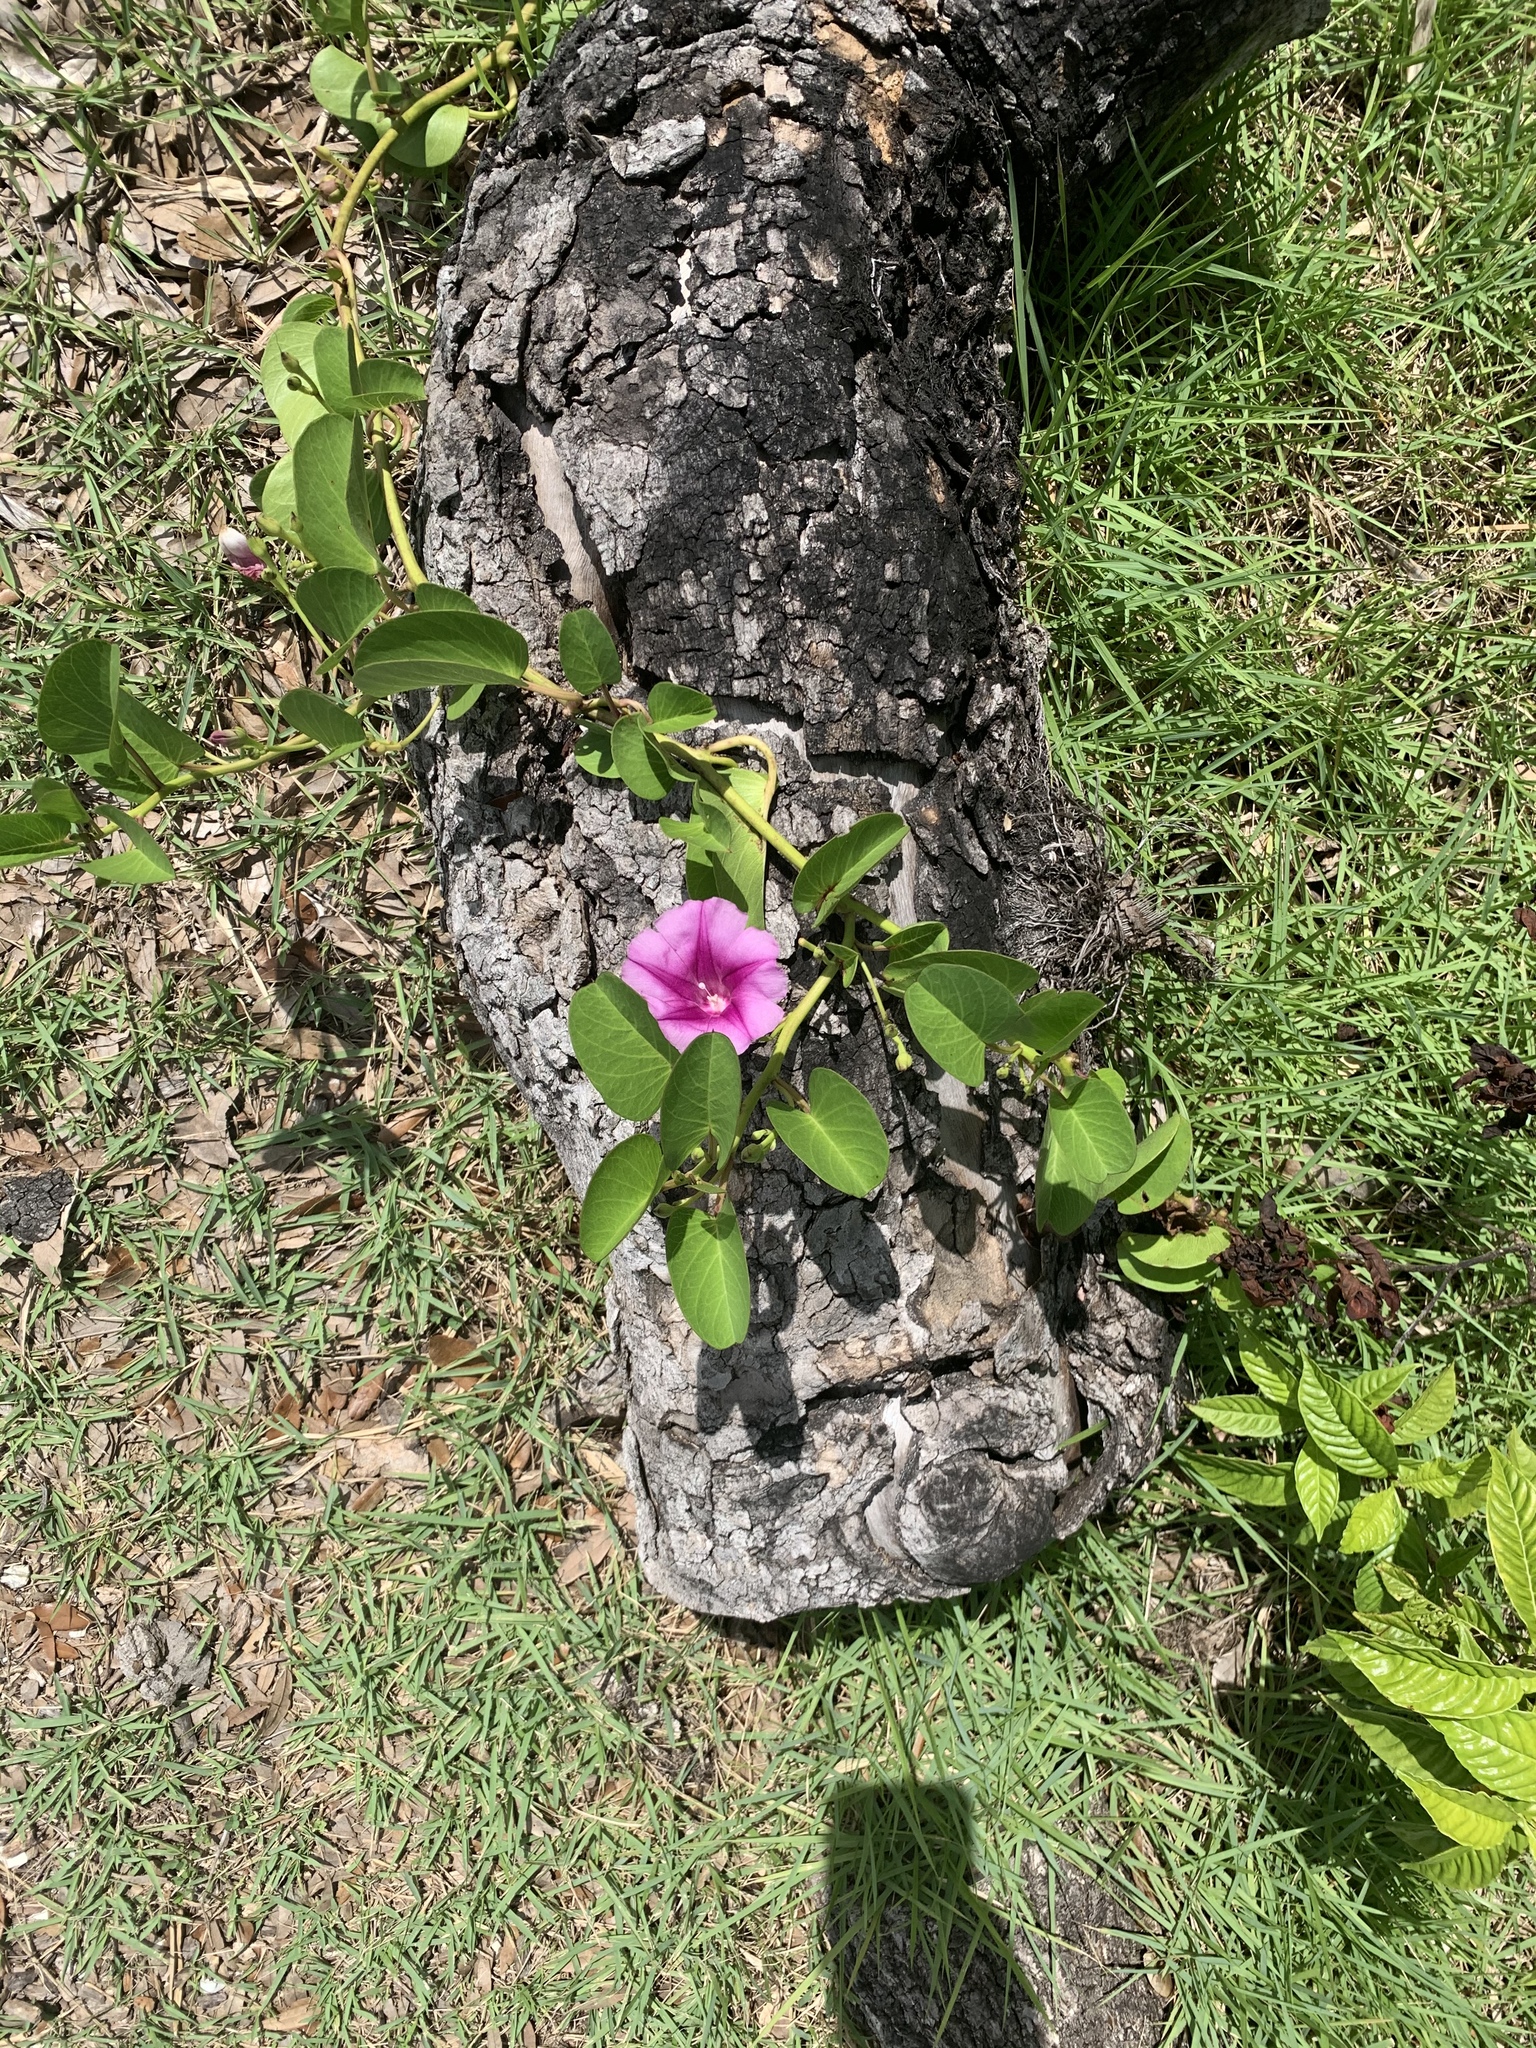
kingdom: Plantae
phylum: Tracheophyta
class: Magnoliopsida
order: Solanales
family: Convolvulaceae
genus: Ipomoea
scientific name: Ipomoea pes-caprae
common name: Beach morning glory
